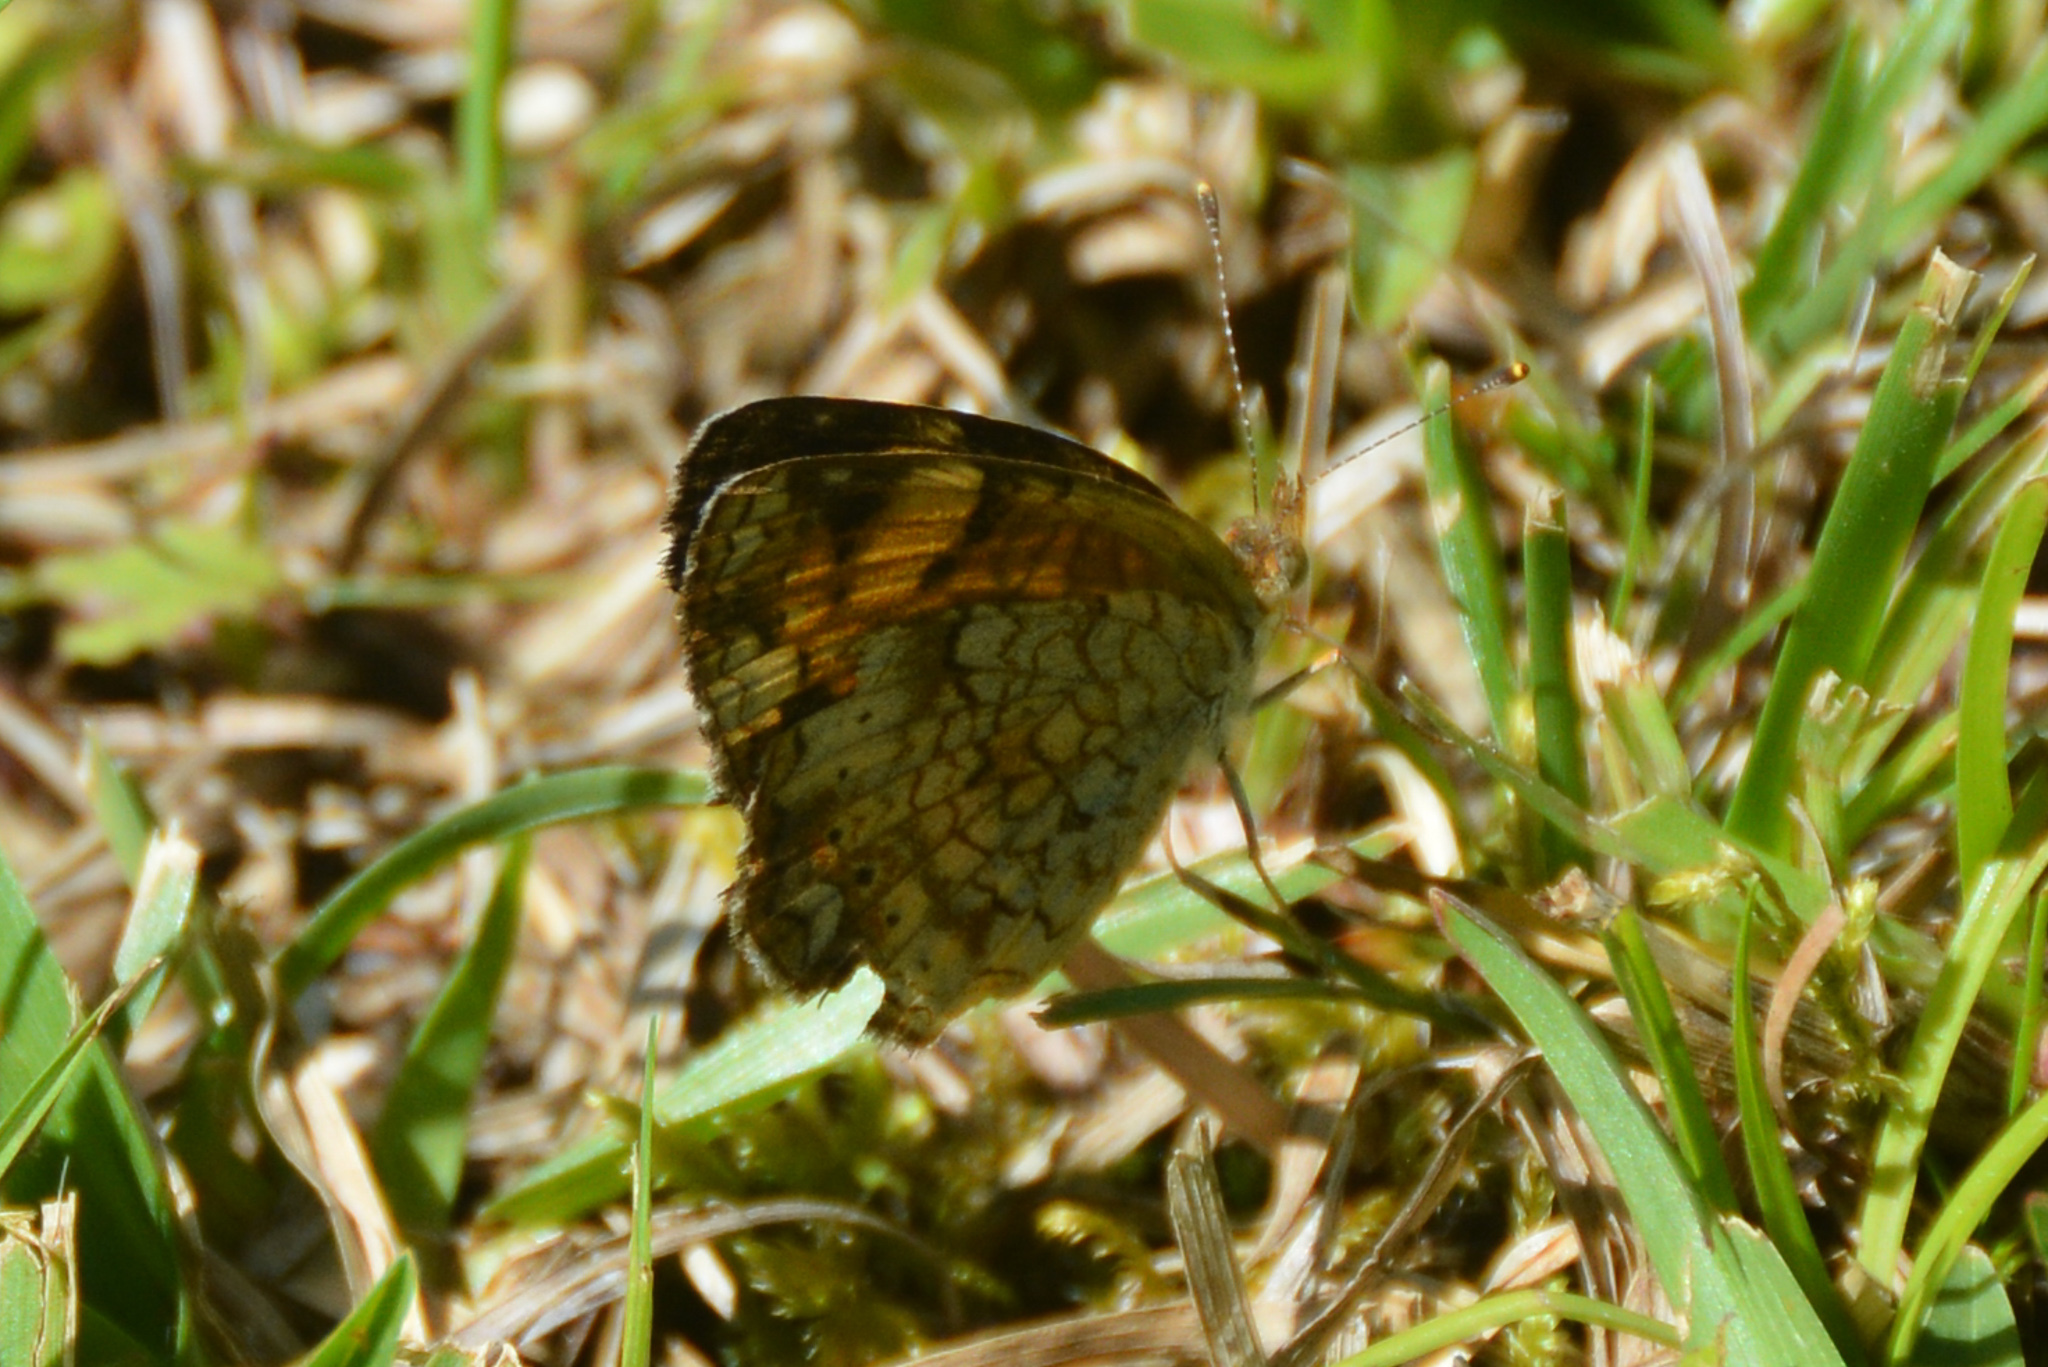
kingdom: Animalia
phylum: Arthropoda
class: Insecta
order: Lepidoptera
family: Nymphalidae
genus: Phyciodes
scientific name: Phyciodes tharos
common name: Pearl crescent
